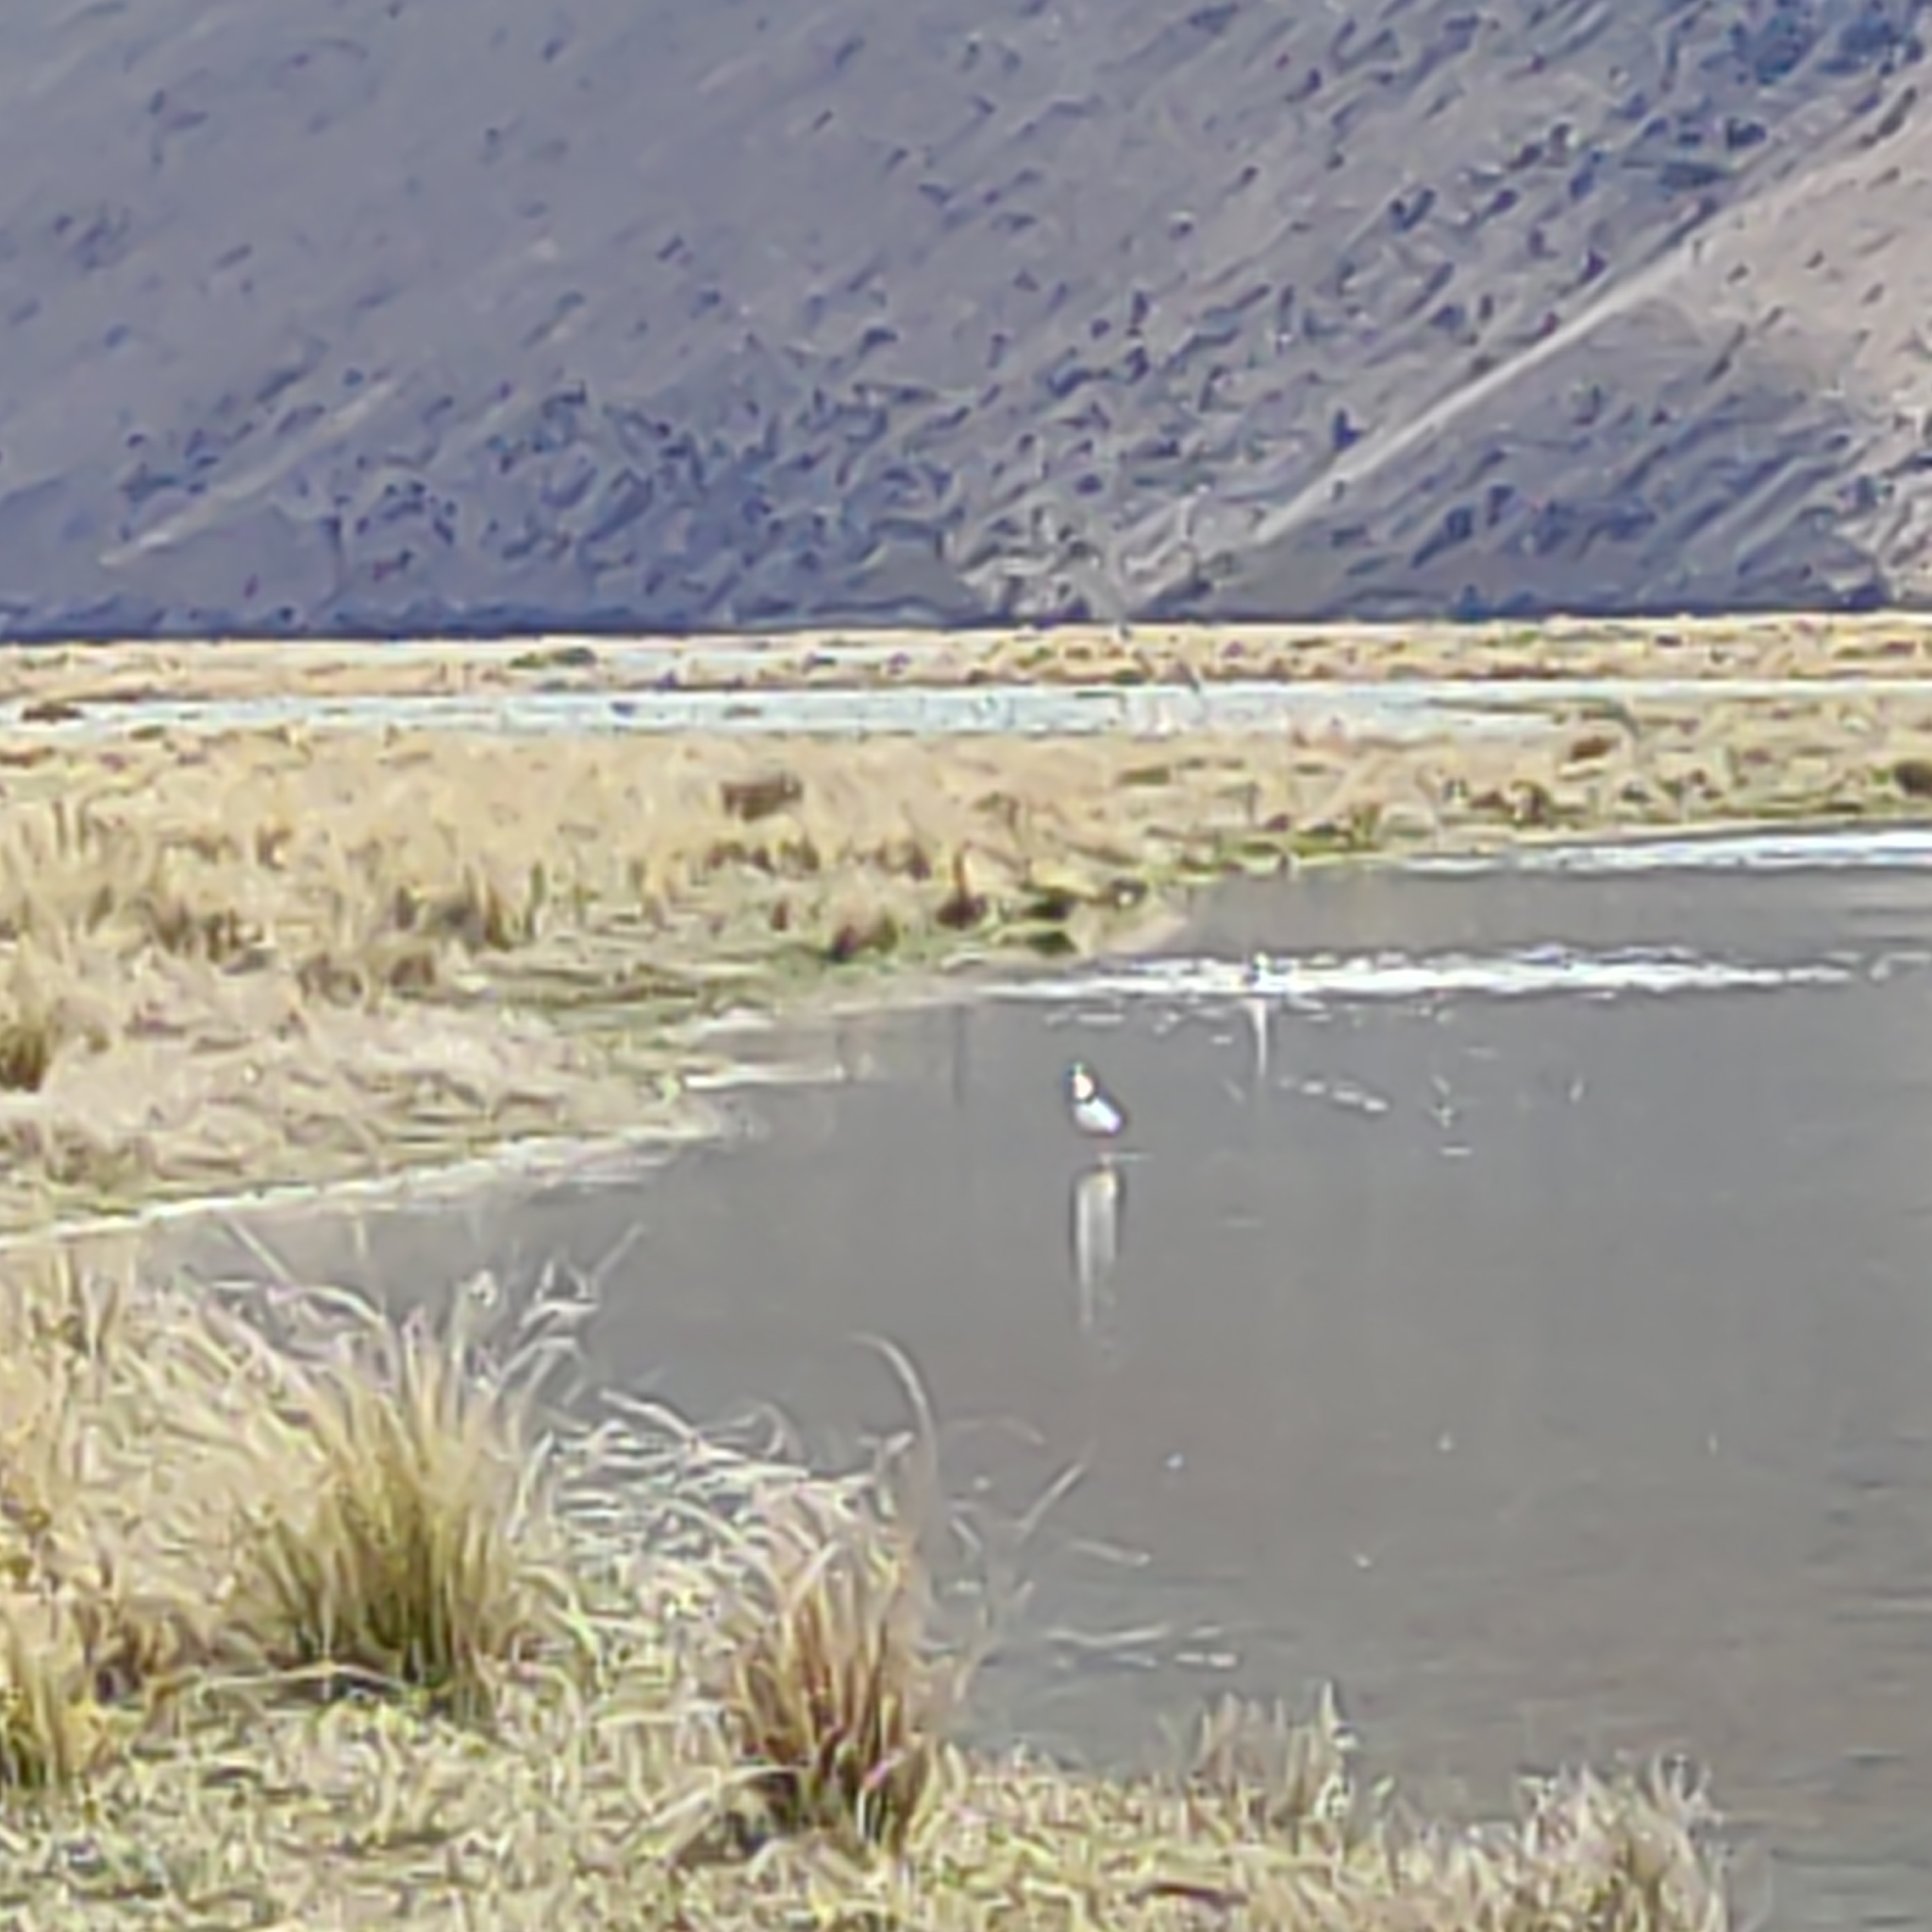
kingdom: Animalia
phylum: Chordata
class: Aves
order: Charadriiformes
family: Charadriidae
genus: Vanellus
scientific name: Vanellus miles
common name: Masked lapwing
